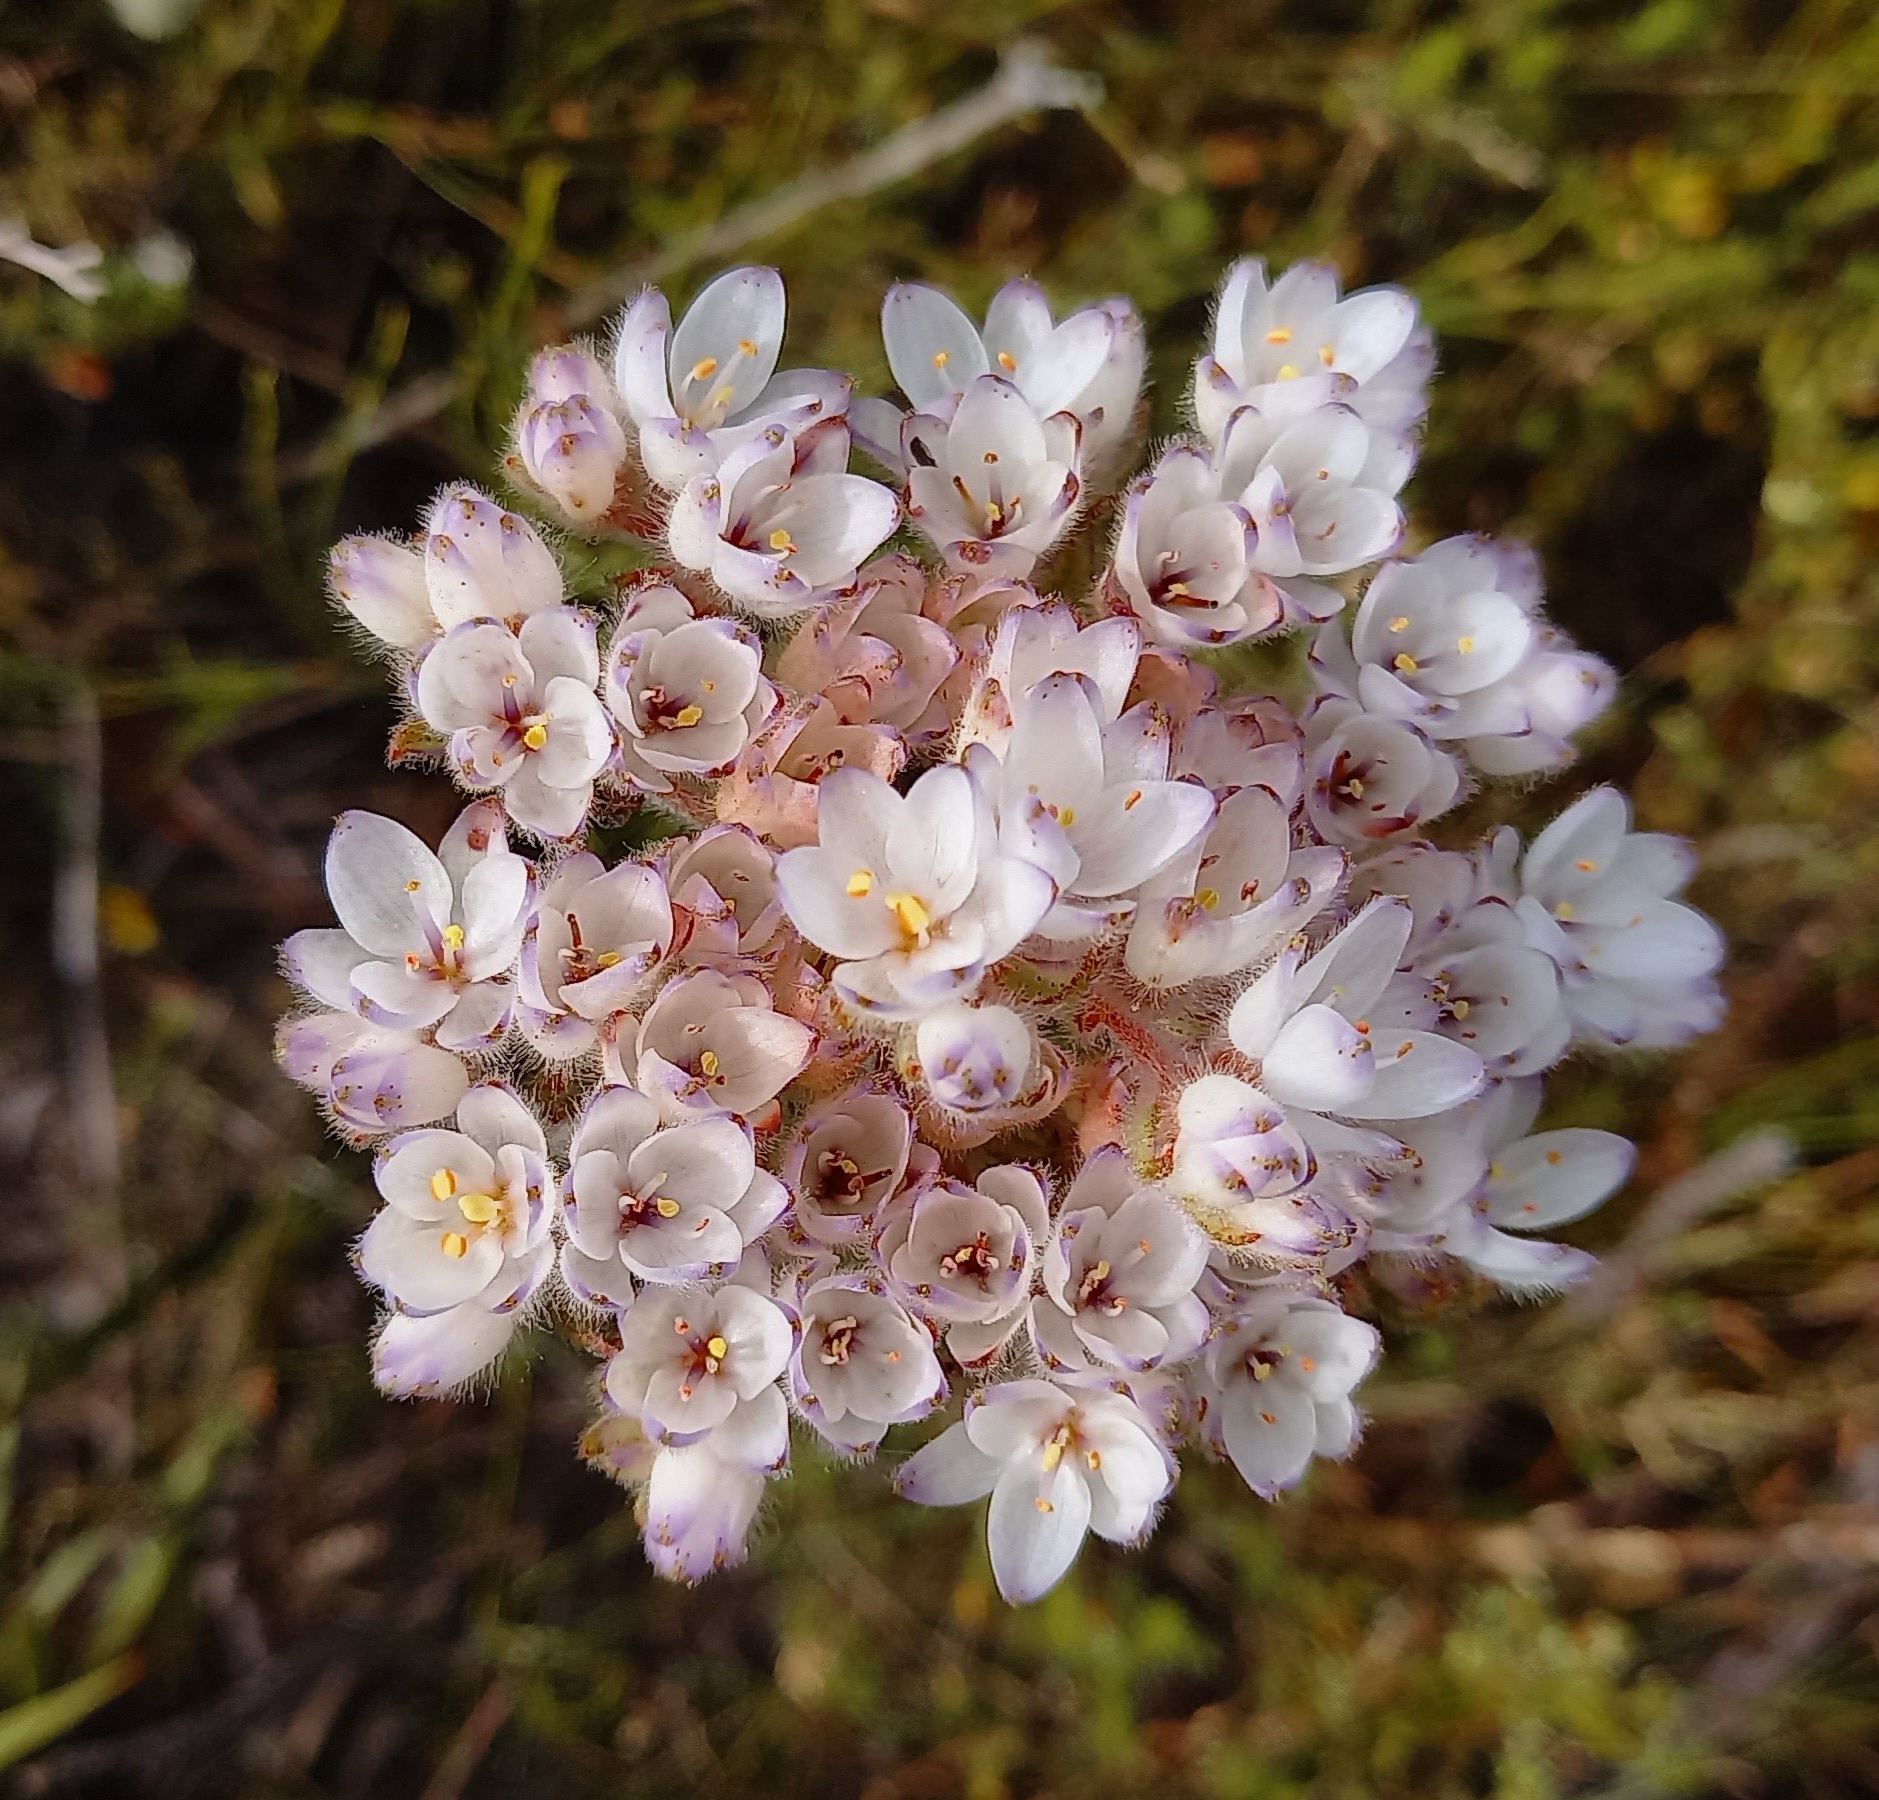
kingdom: Plantae
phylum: Tracheophyta
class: Liliopsida
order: Commelinales
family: Haemodoraceae
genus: Dilatris
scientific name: Dilatris pillansii
